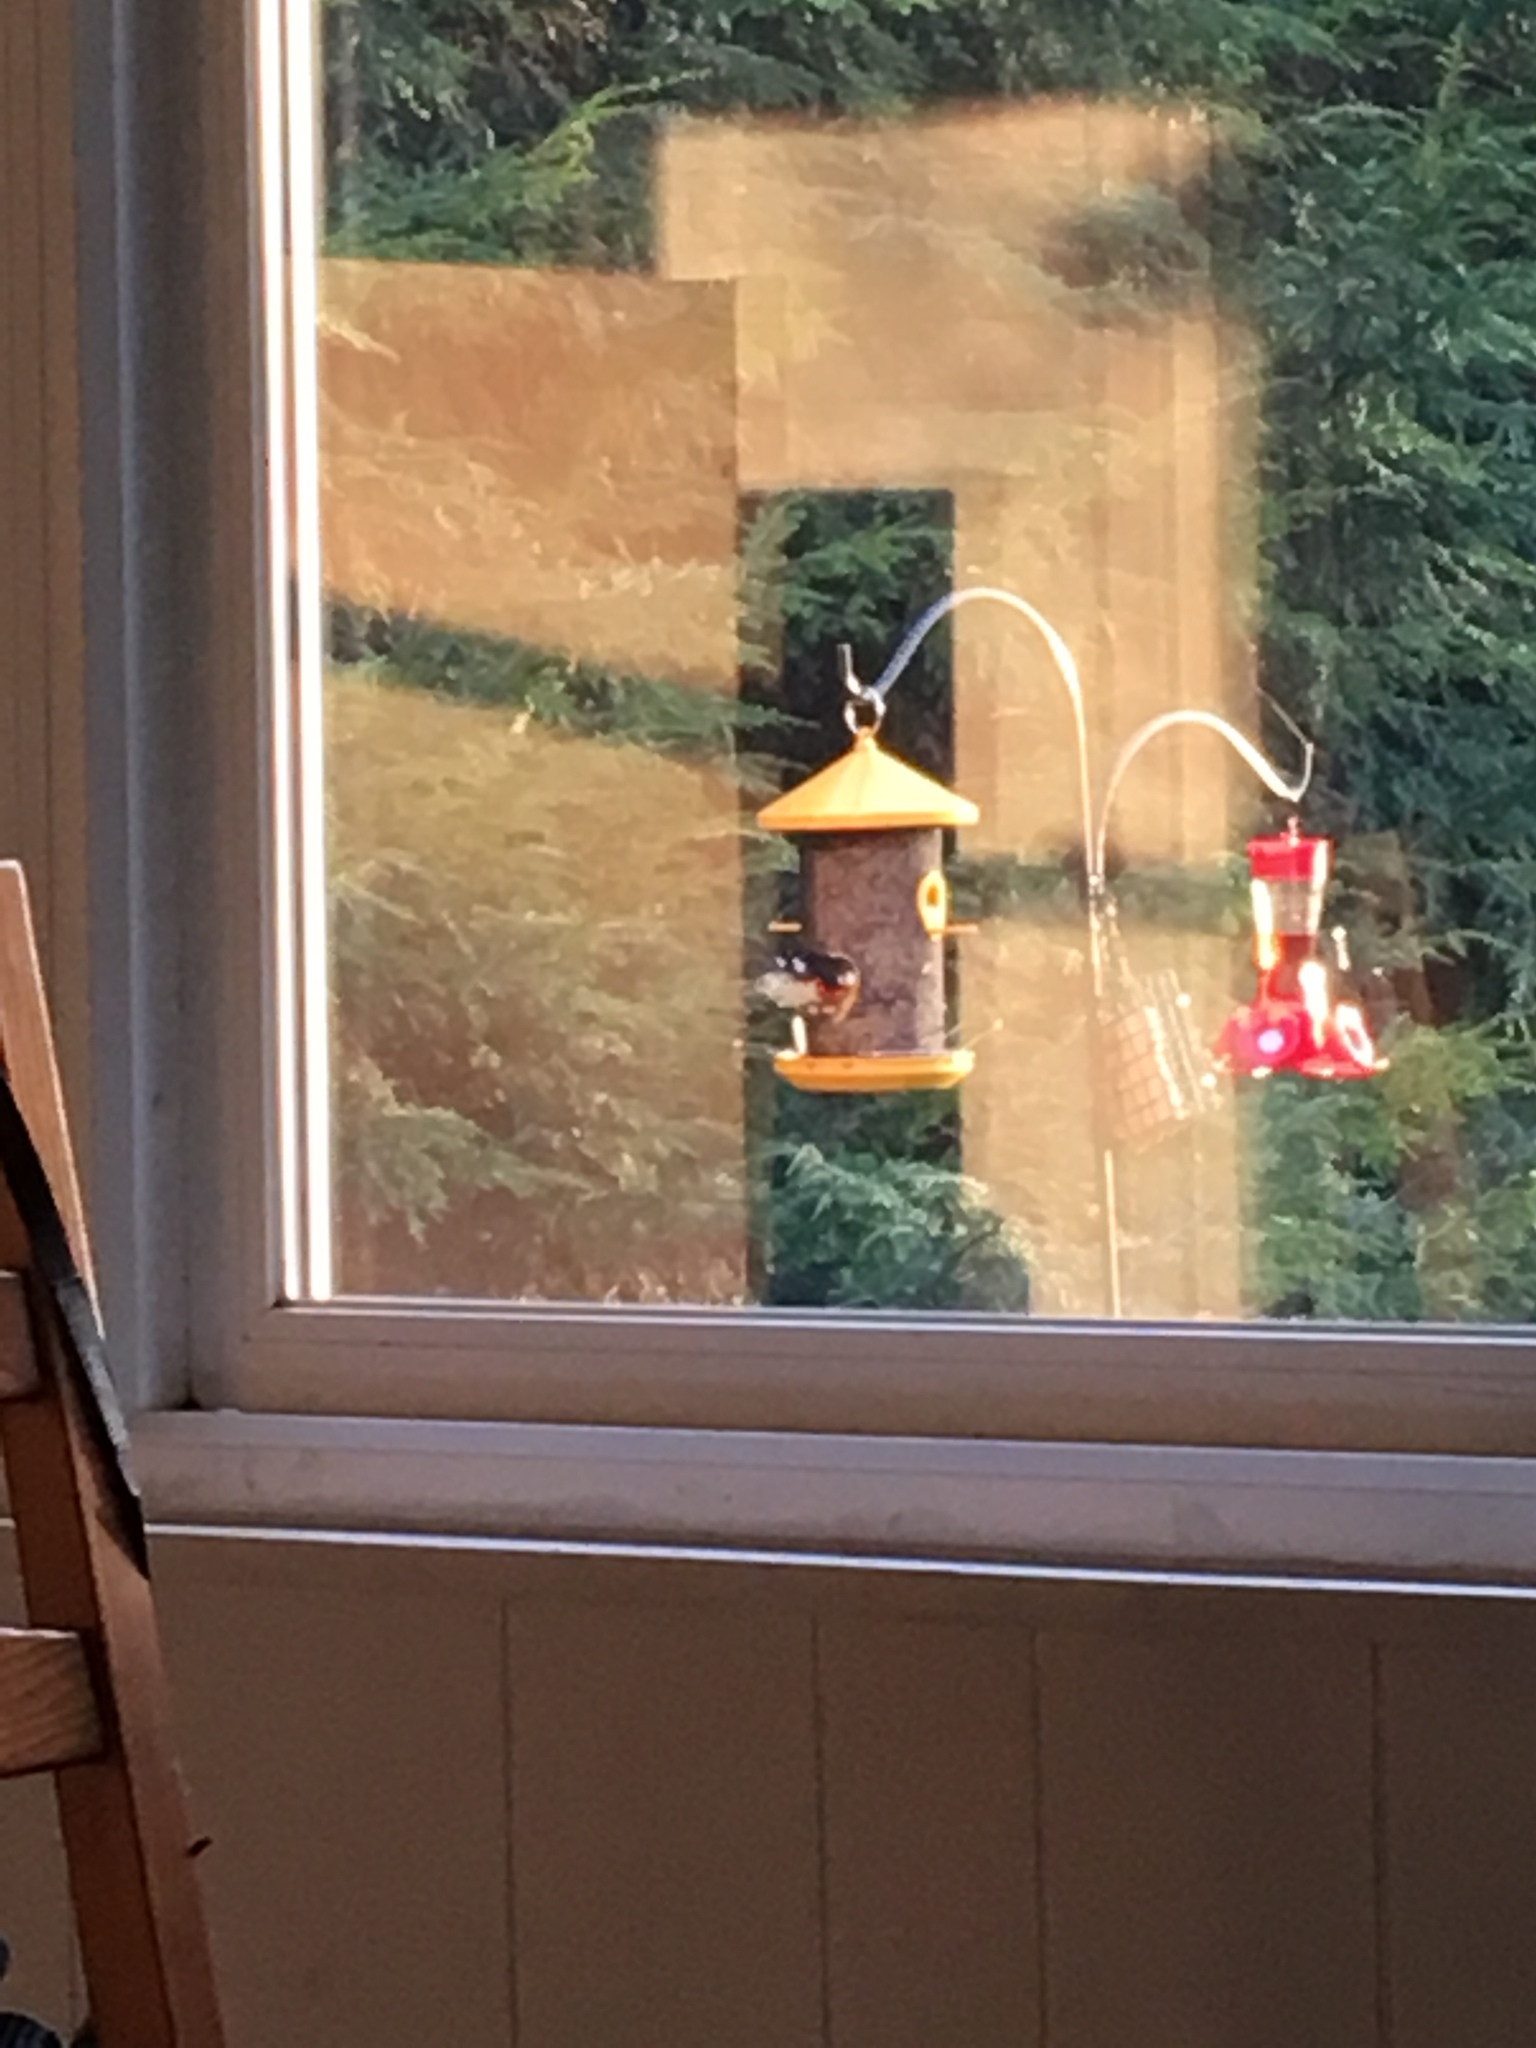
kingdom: Animalia
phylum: Chordata
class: Aves
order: Passeriformes
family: Cardinalidae
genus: Pheucticus
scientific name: Pheucticus ludovicianus
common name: Rose-breasted grosbeak
